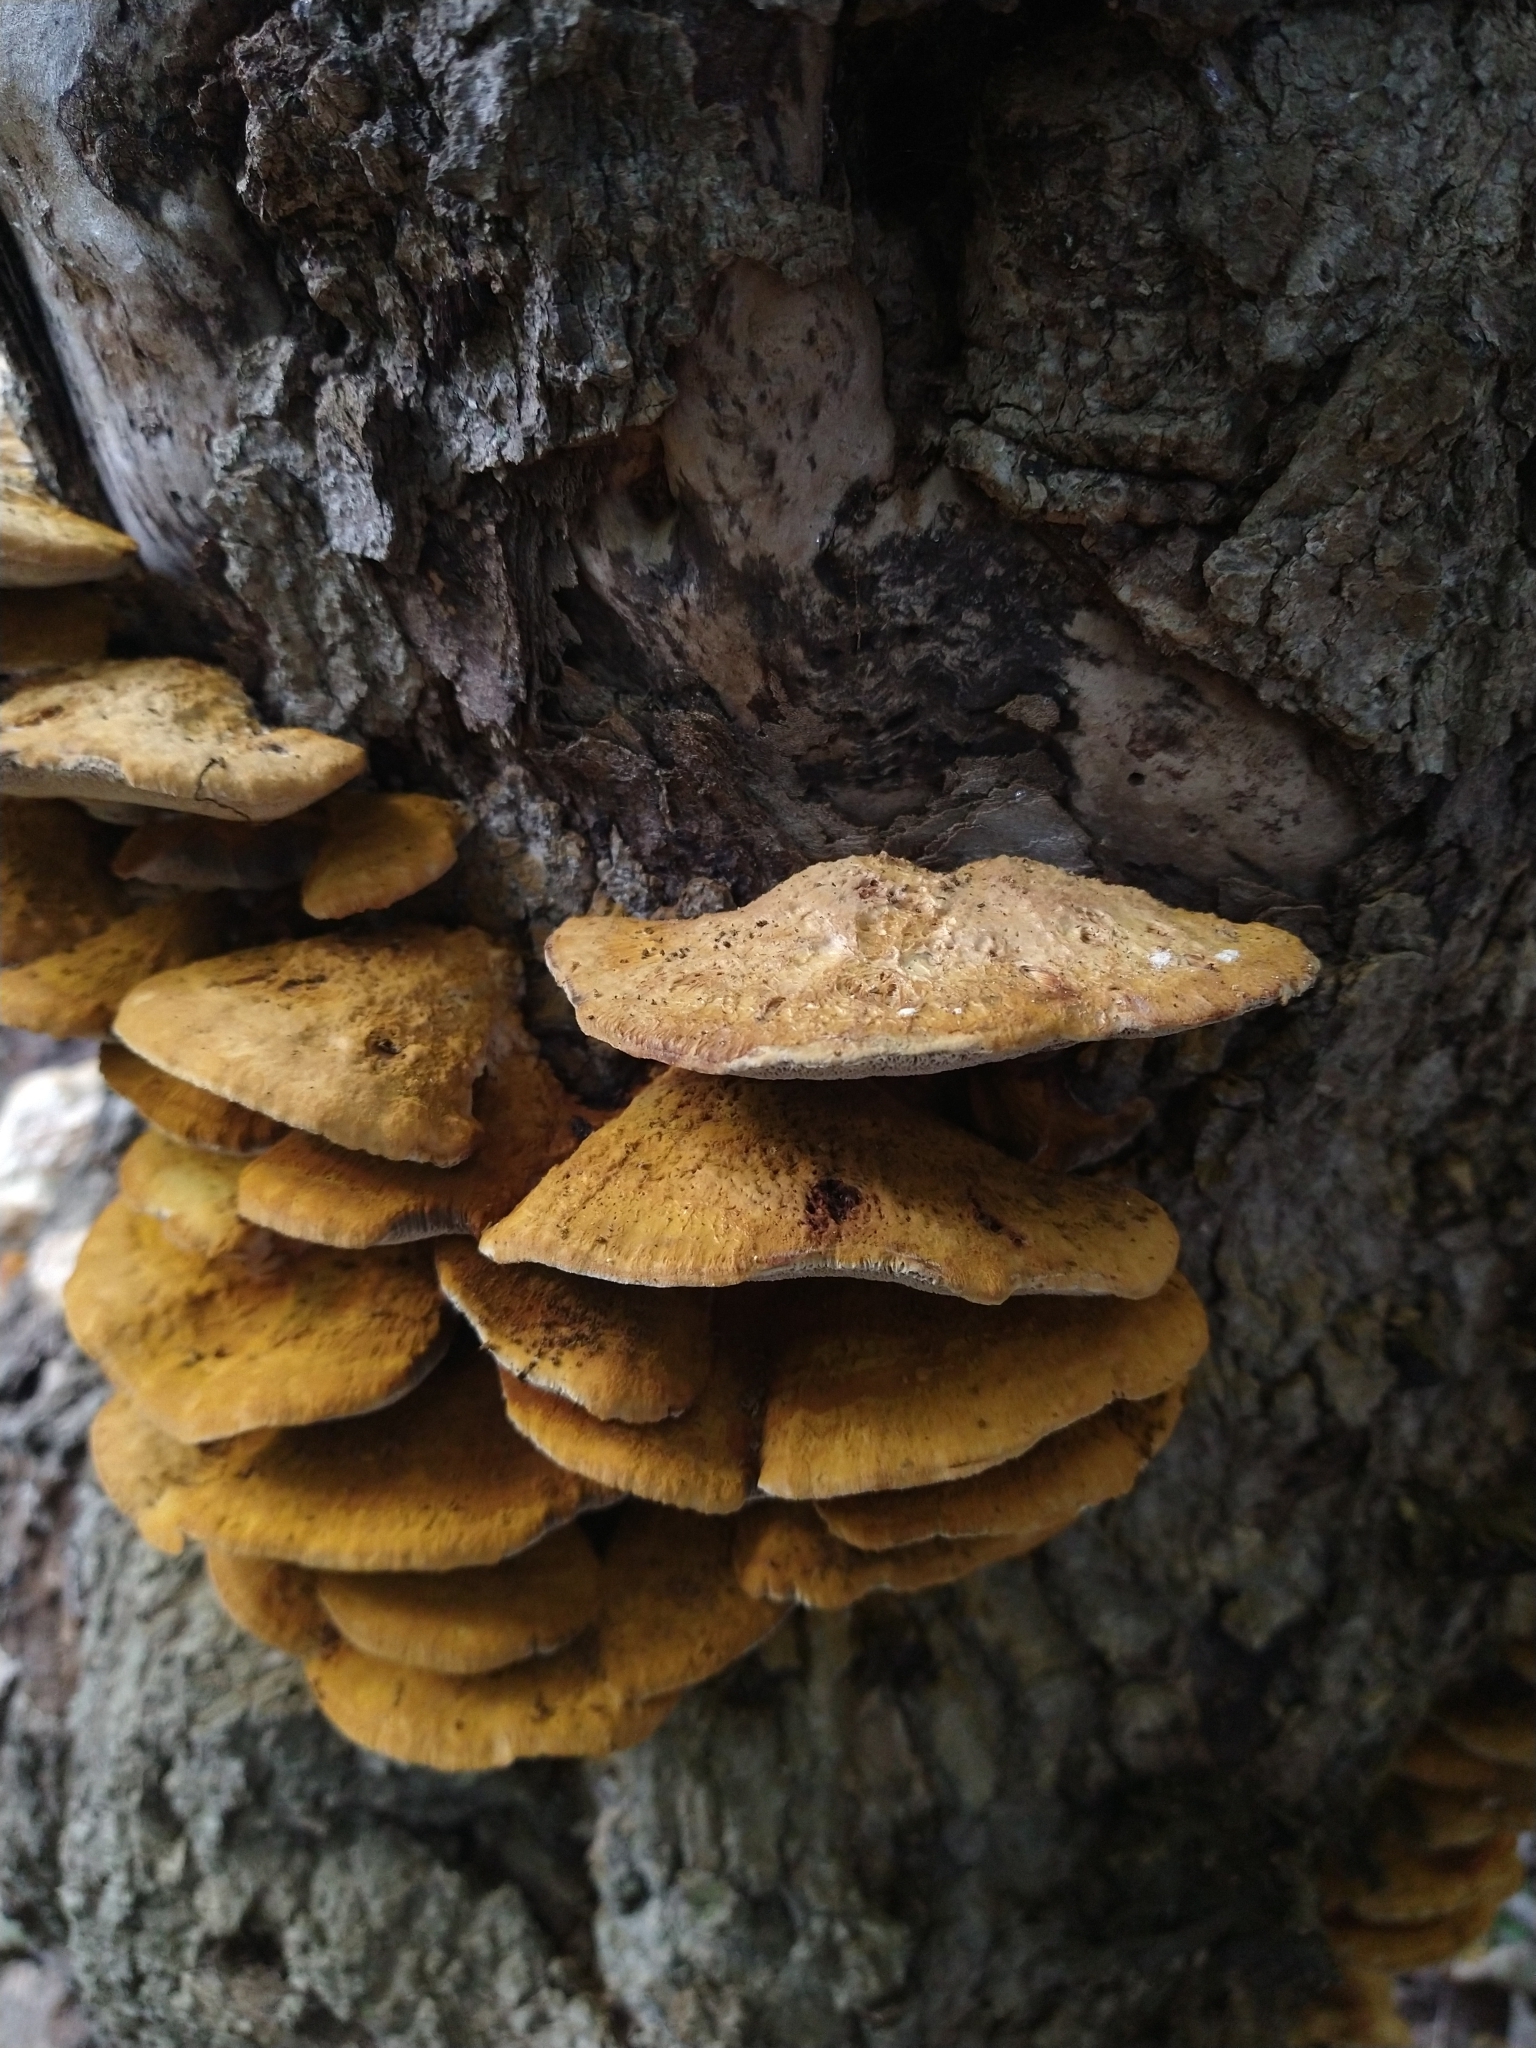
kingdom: Fungi
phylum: Basidiomycota
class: Agaricomycetes
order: Hymenochaetales
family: Hymenochaetaceae
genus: Inonotus
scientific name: Inonotus cuticularis
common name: Clustered bracket
